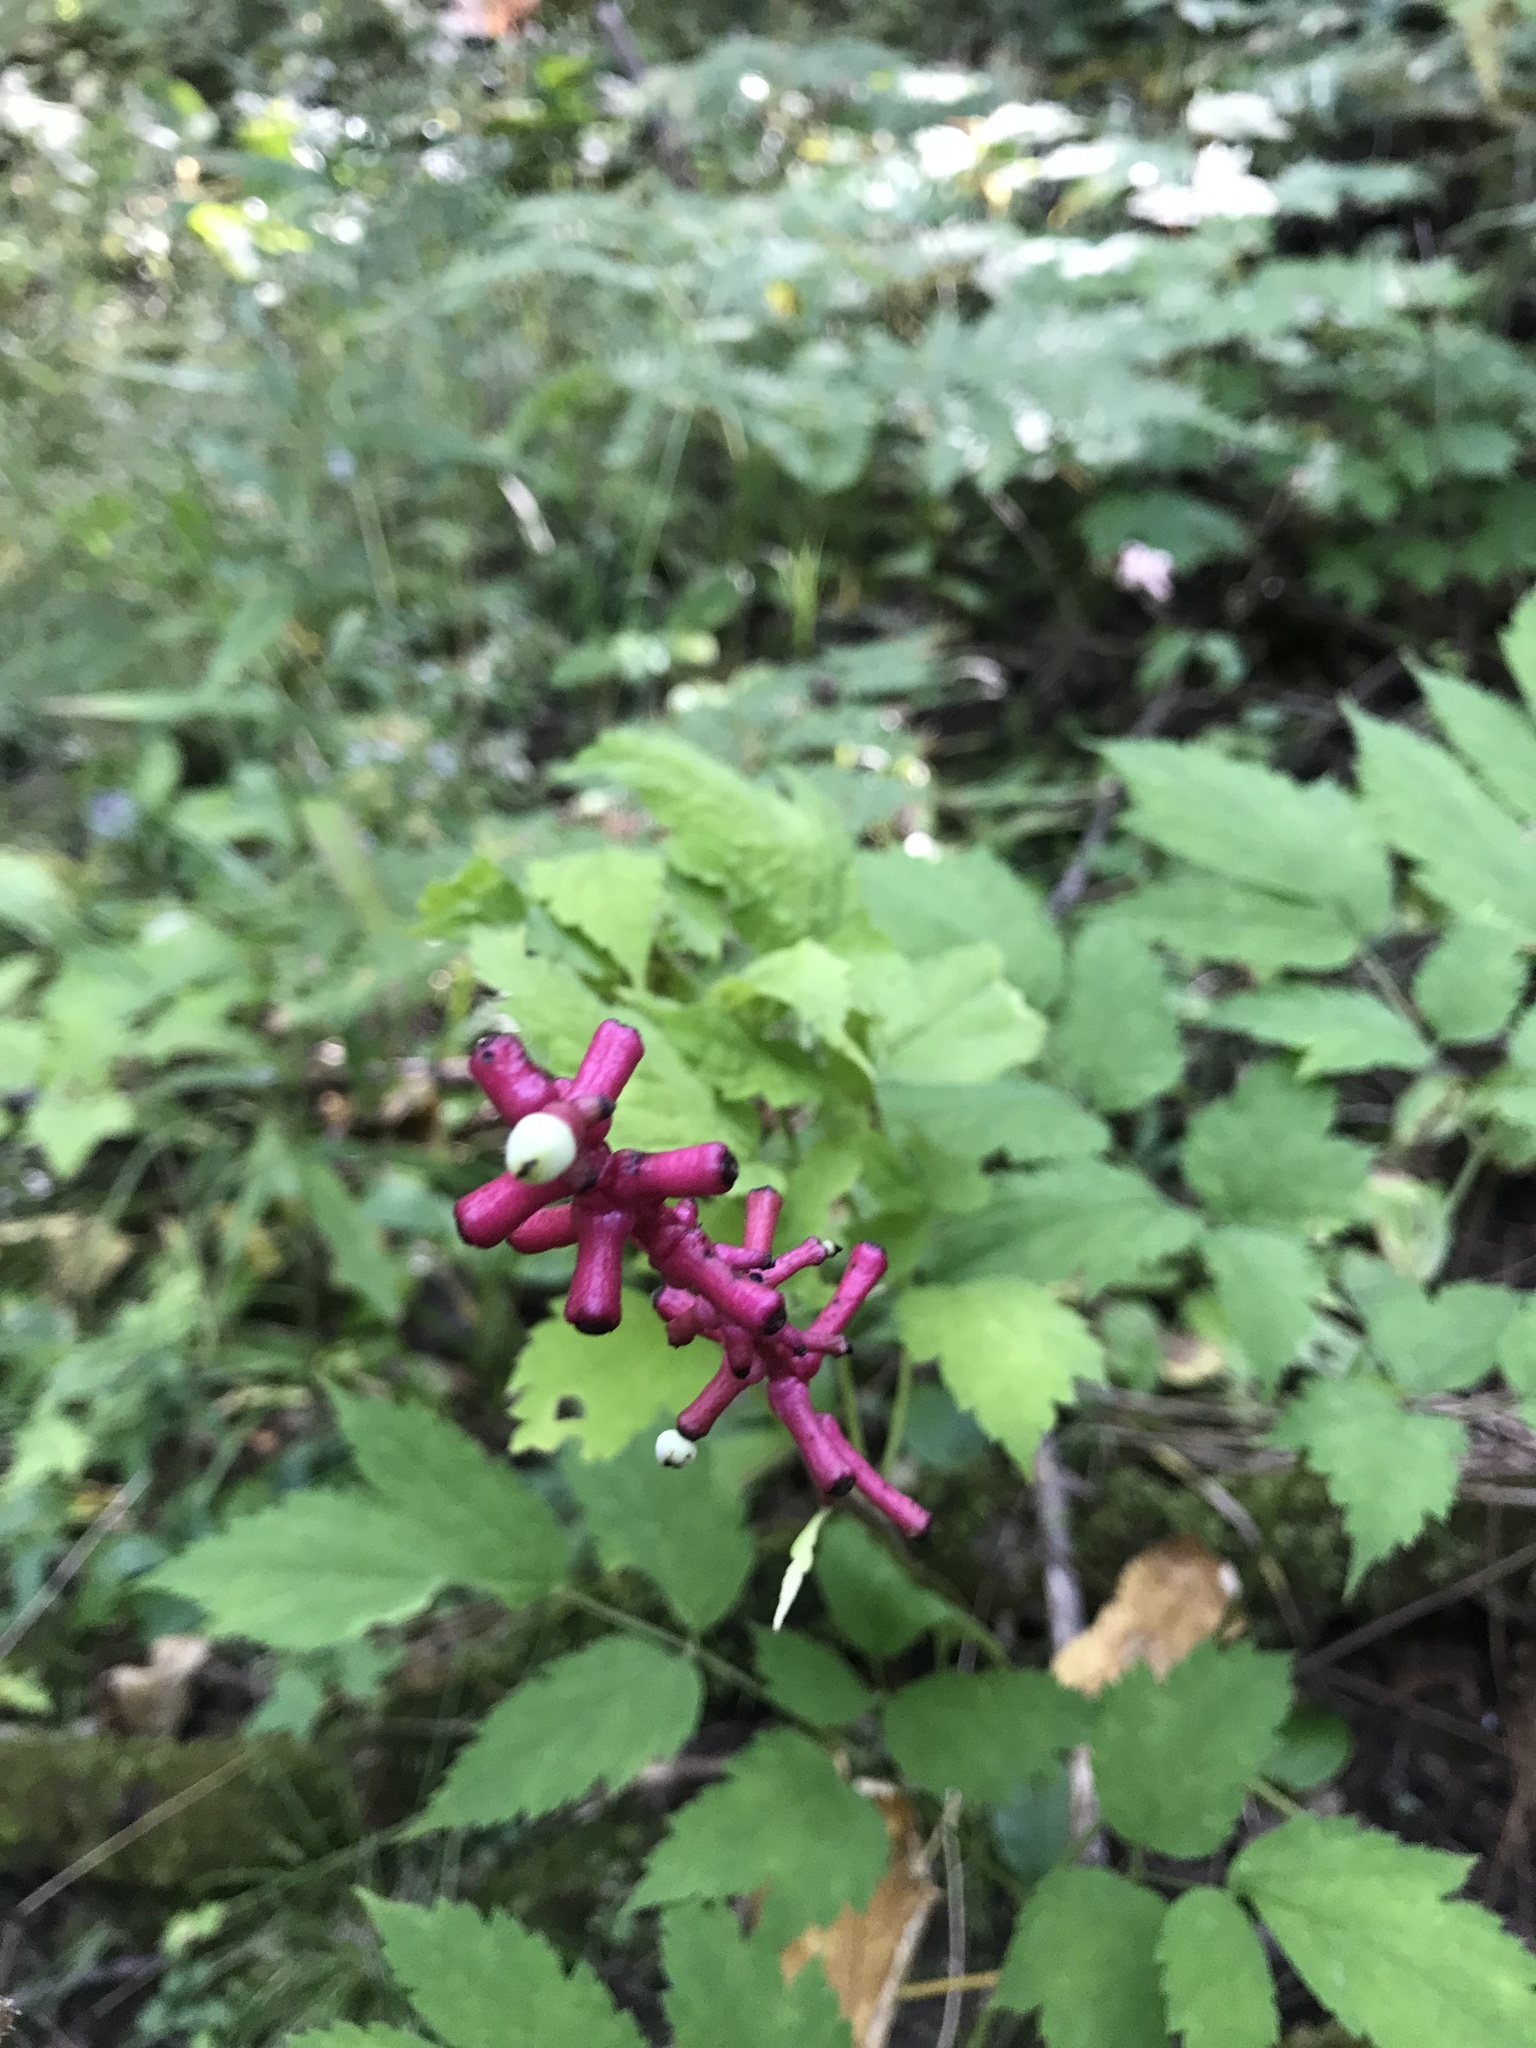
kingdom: Plantae
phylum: Tracheophyta
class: Magnoliopsida
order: Ranunculales
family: Ranunculaceae
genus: Actaea
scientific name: Actaea pachypoda
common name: Doll's-eyes
